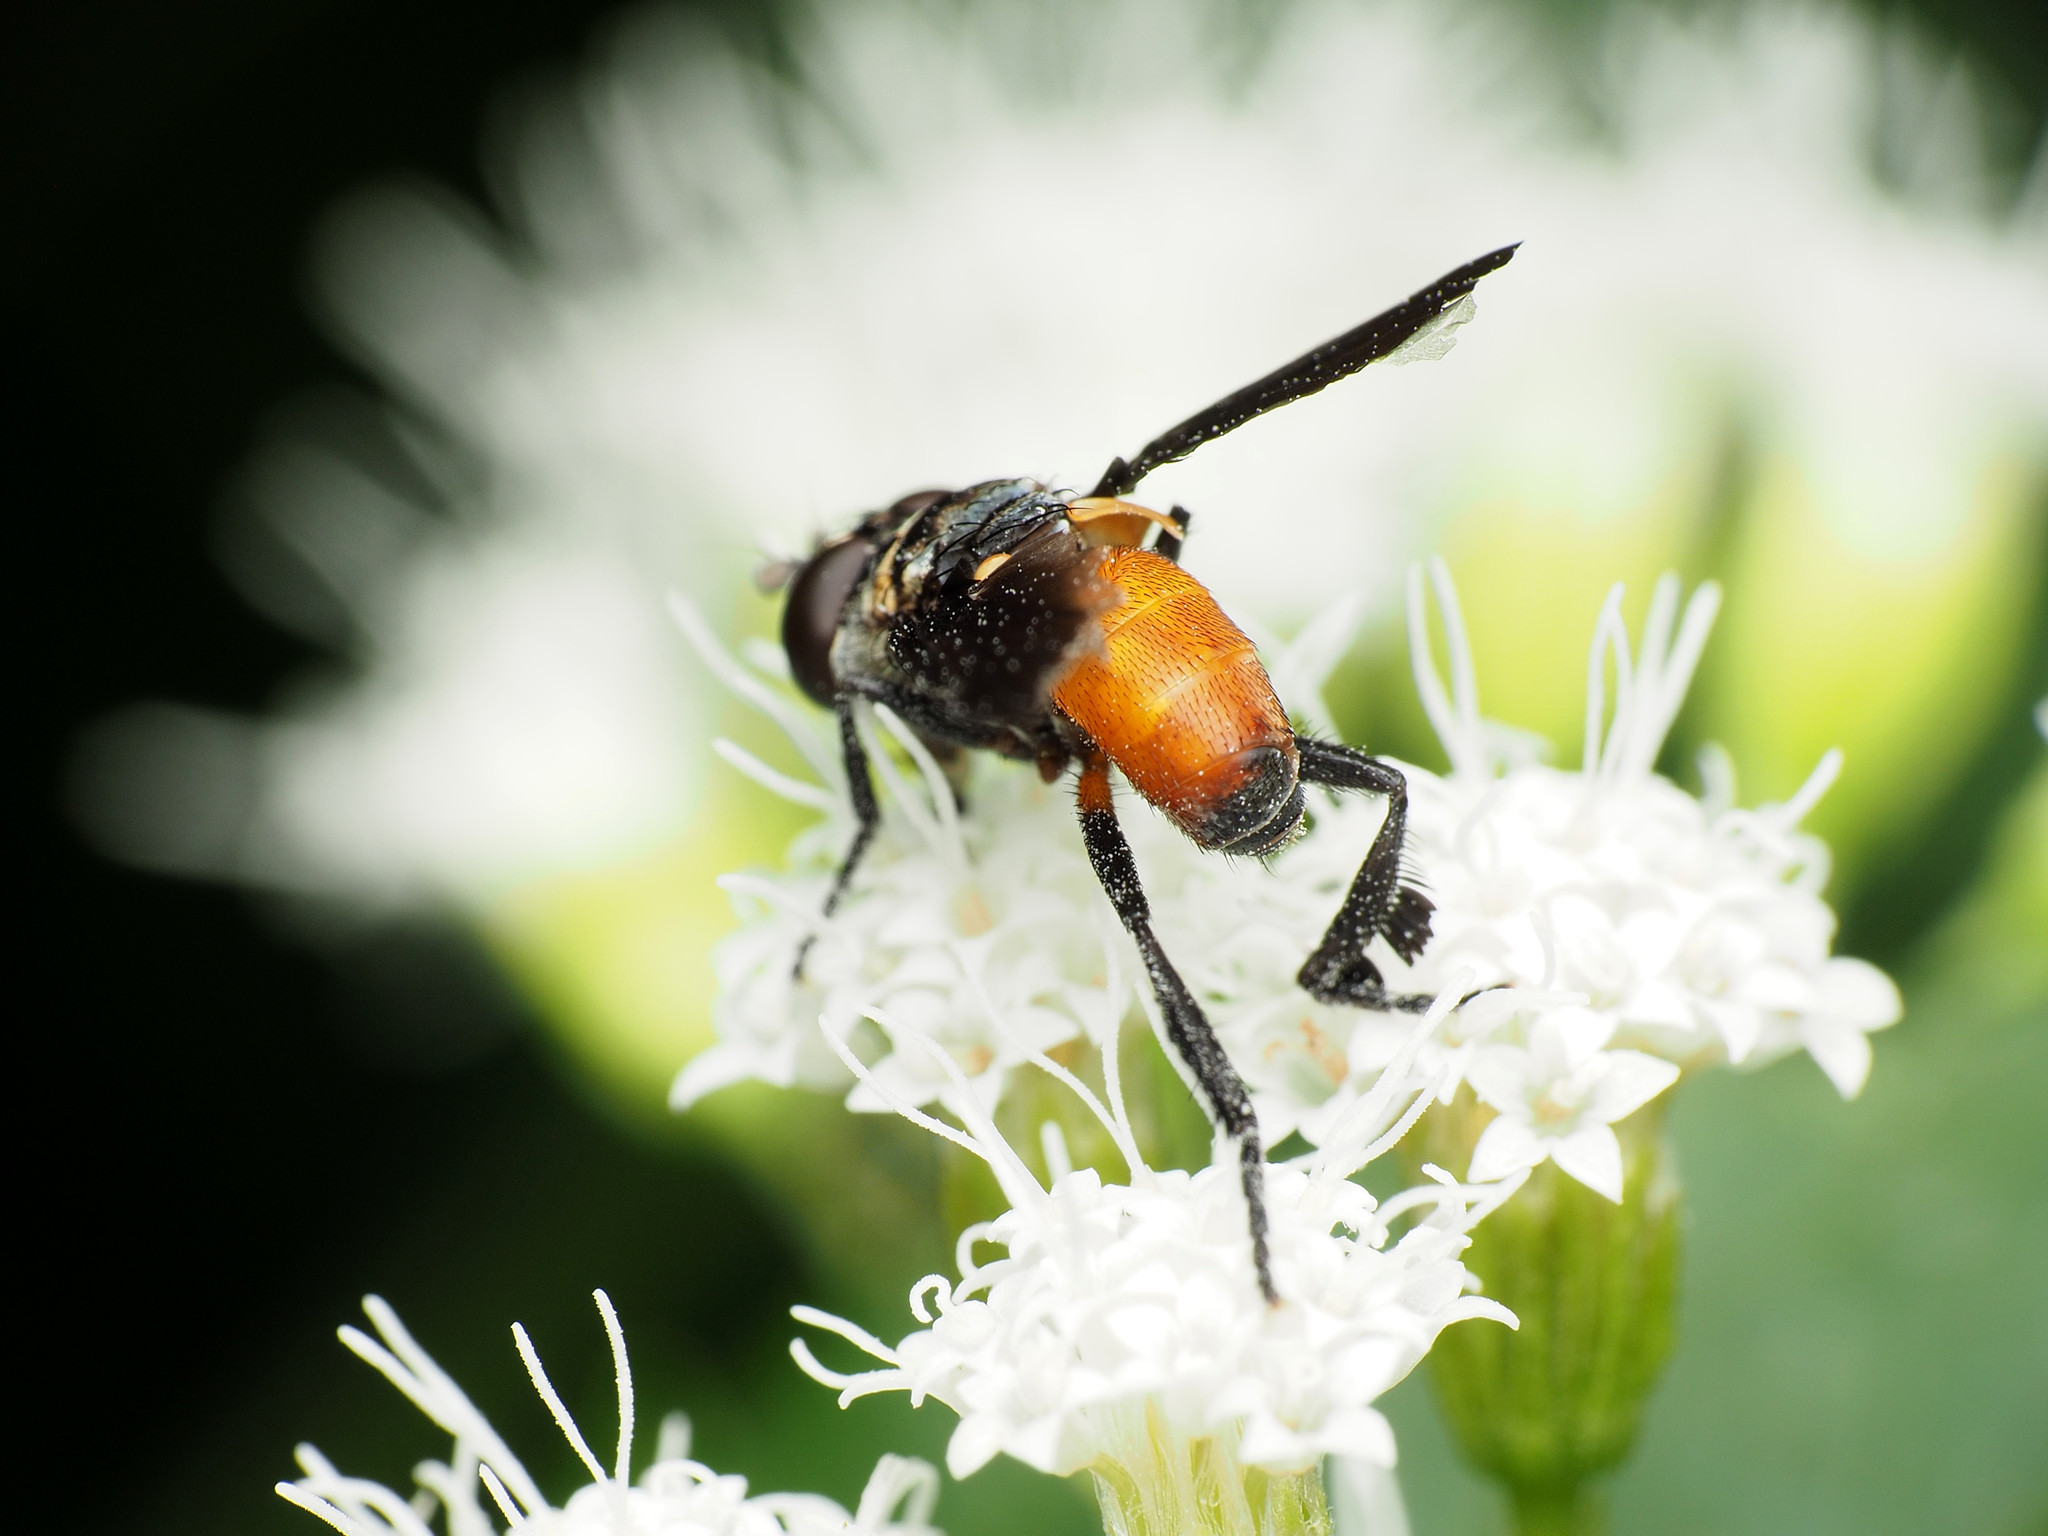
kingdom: Animalia
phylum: Arthropoda
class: Insecta
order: Diptera
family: Tachinidae
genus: Trichopoda
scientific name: Trichopoda pennipes
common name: Tachinid fly
